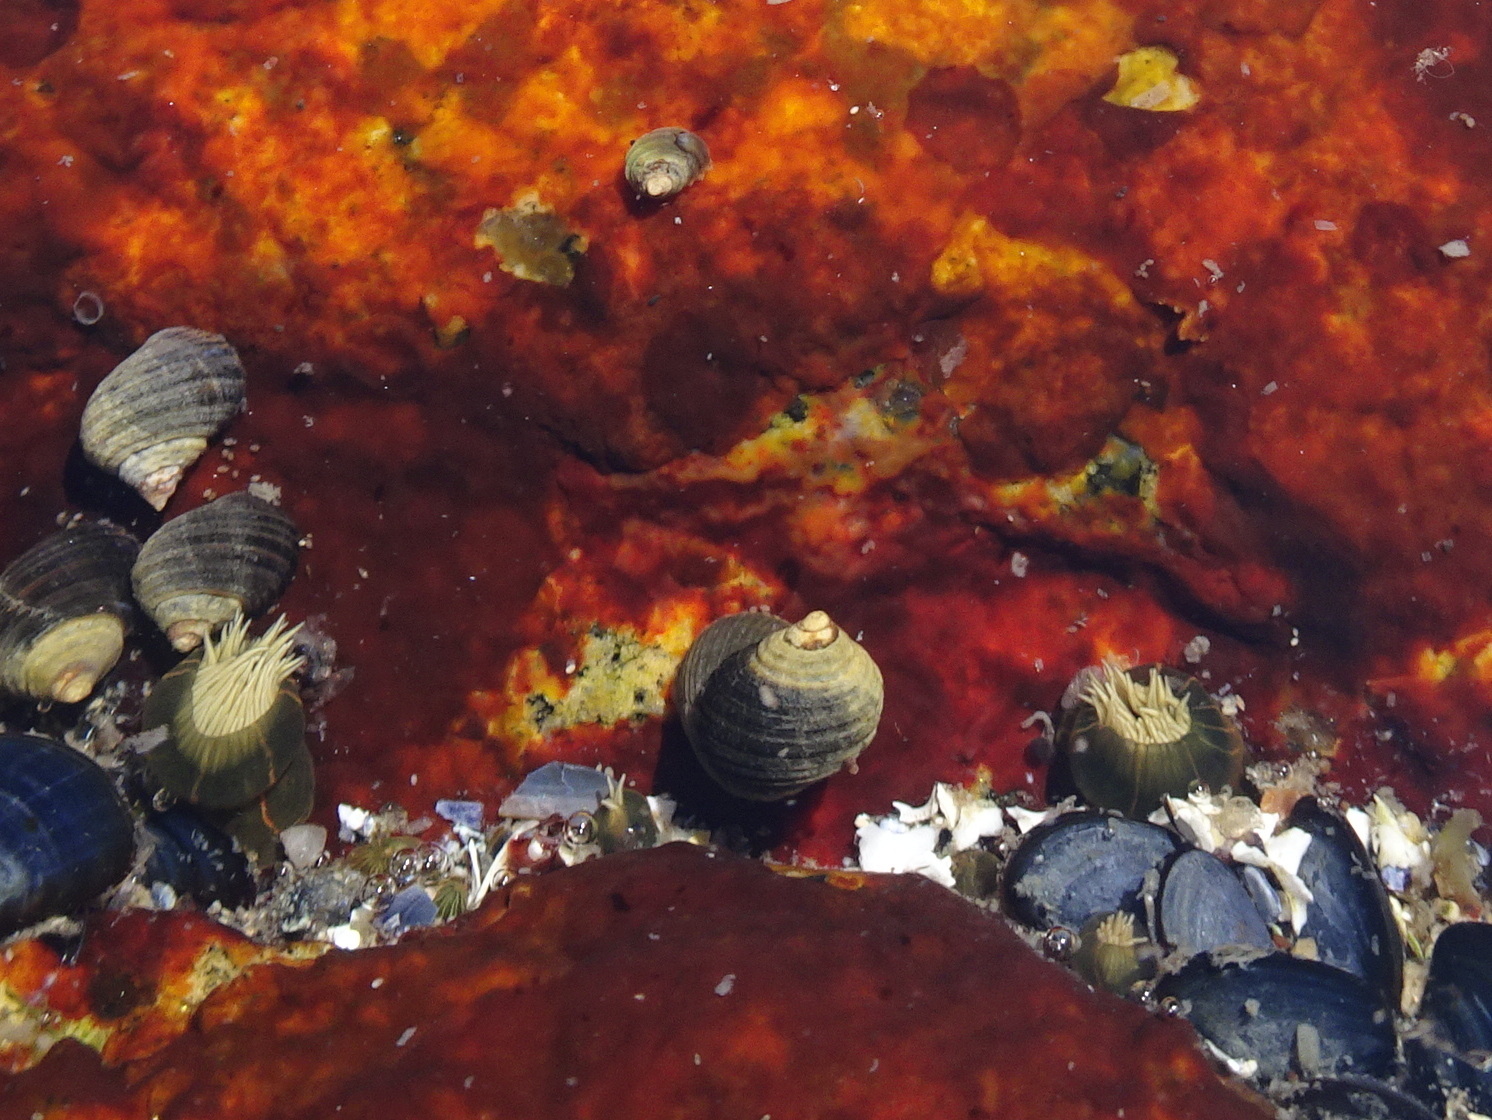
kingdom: Animalia
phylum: Cnidaria
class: Anthozoa
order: Actiniaria
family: Diadumenidae
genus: Diadumene
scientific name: Diadumene lineata
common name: Orange-striped anemone
